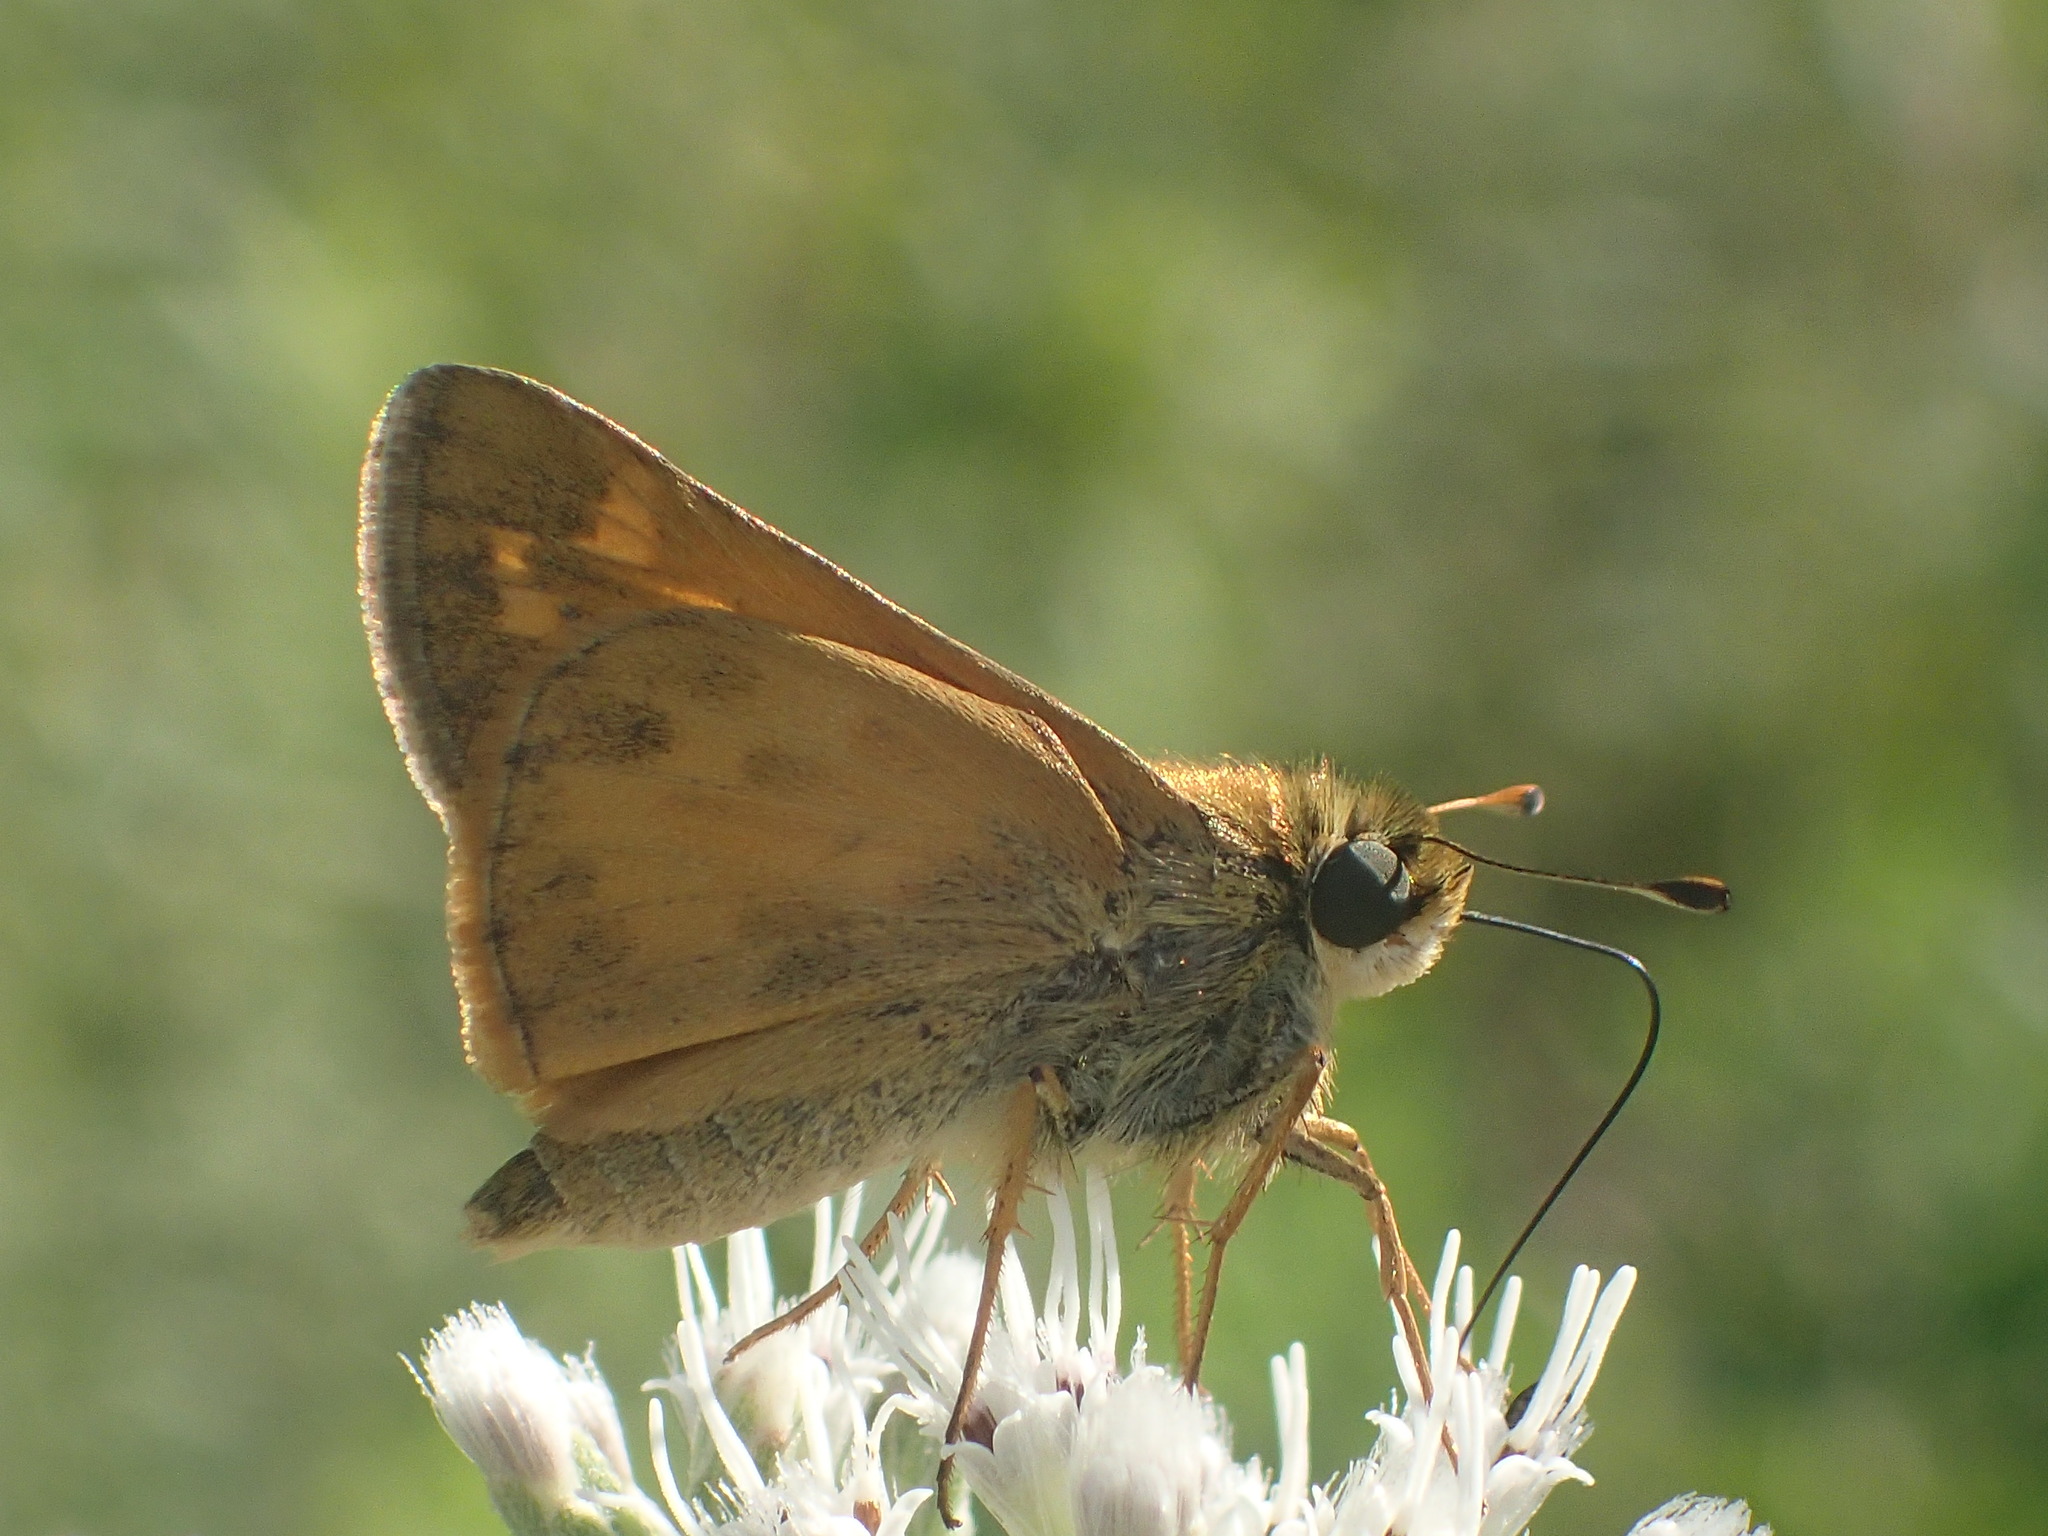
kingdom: Animalia
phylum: Arthropoda
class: Insecta
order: Lepidoptera
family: Hesperiidae
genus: Atalopedes
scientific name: Atalopedes
